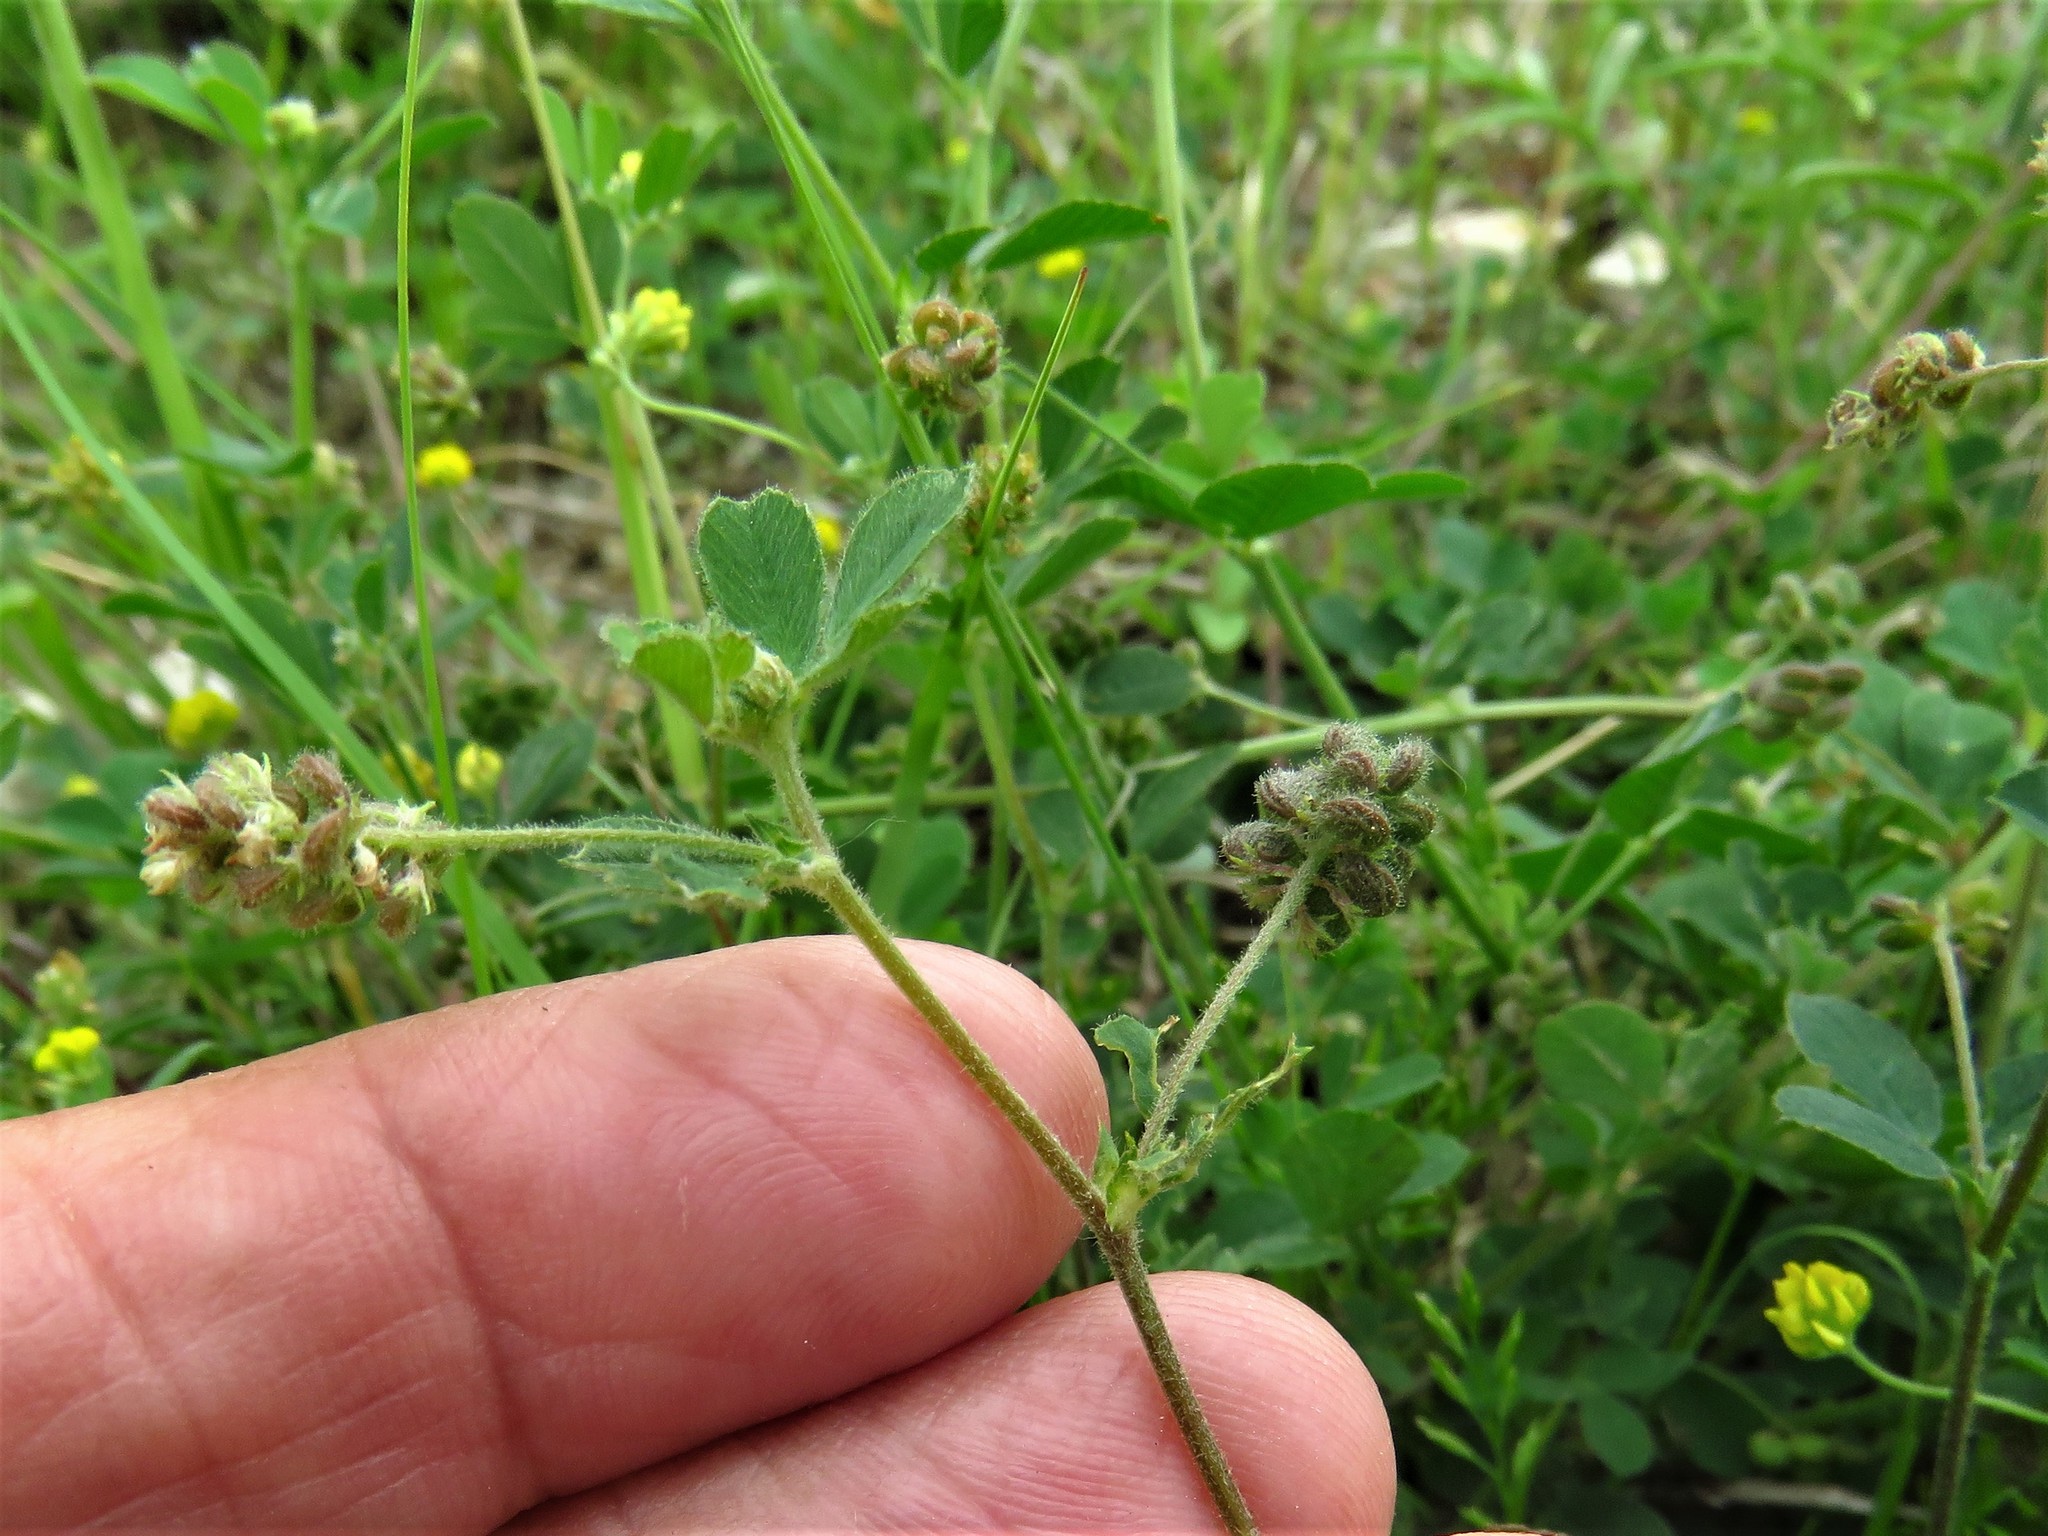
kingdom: Plantae
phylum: Tracheophyta
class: Magnoliopsida
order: Fabales
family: Fabaceae
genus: Medicago
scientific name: Medicago lupulina
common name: Black medick
